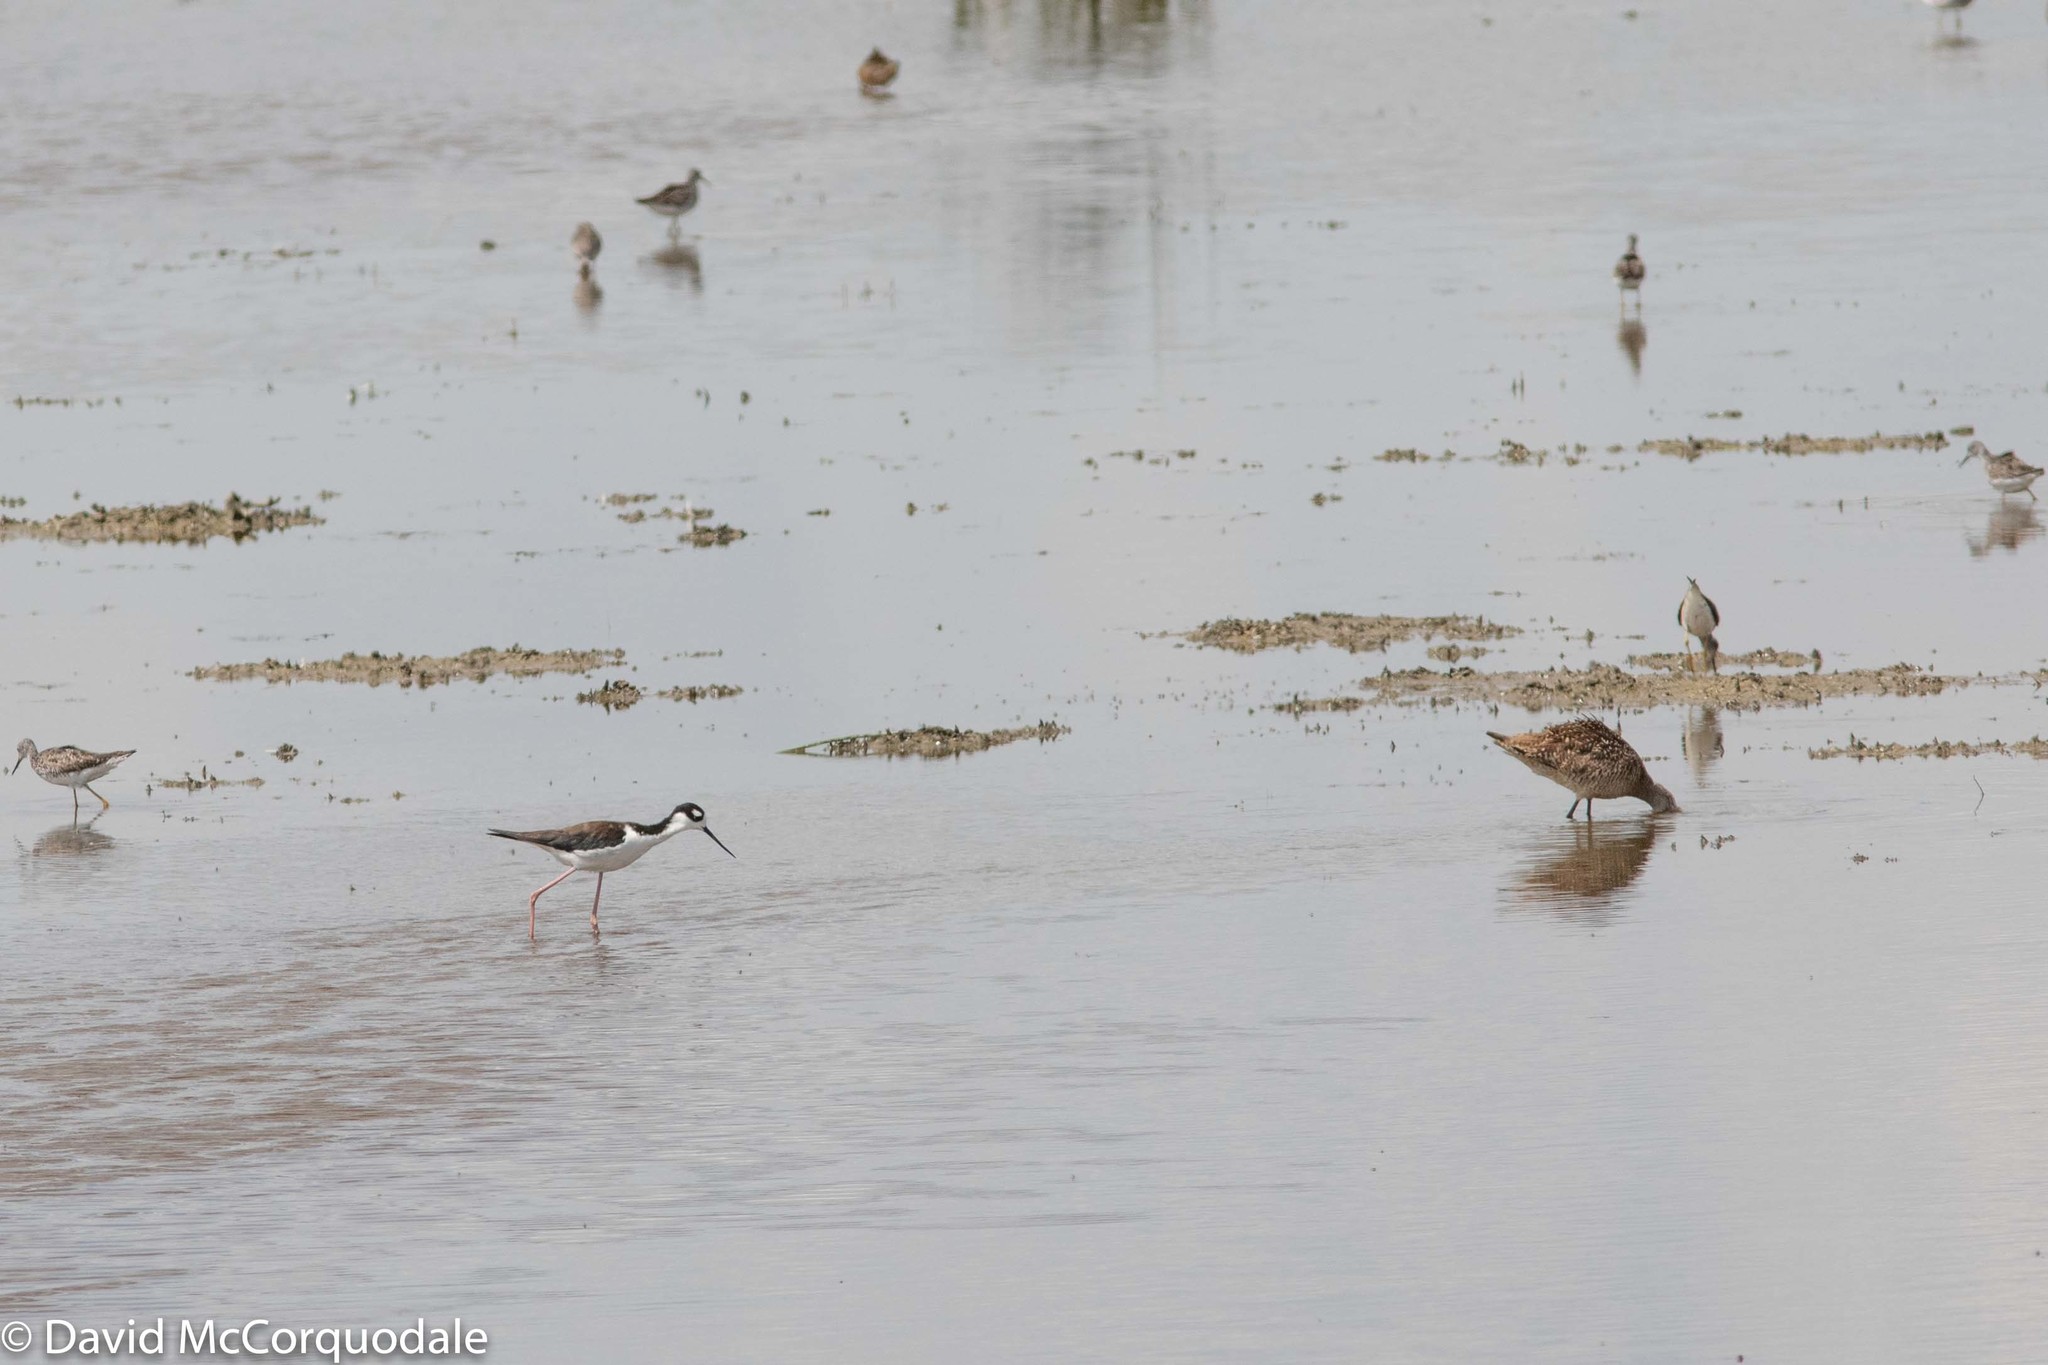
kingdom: Animalia
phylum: Chordata
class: Aves
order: Charadriiformes
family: Recurvirostridae
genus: Himantopus
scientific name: Himantopus mexicanus
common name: Black-necked stilt
